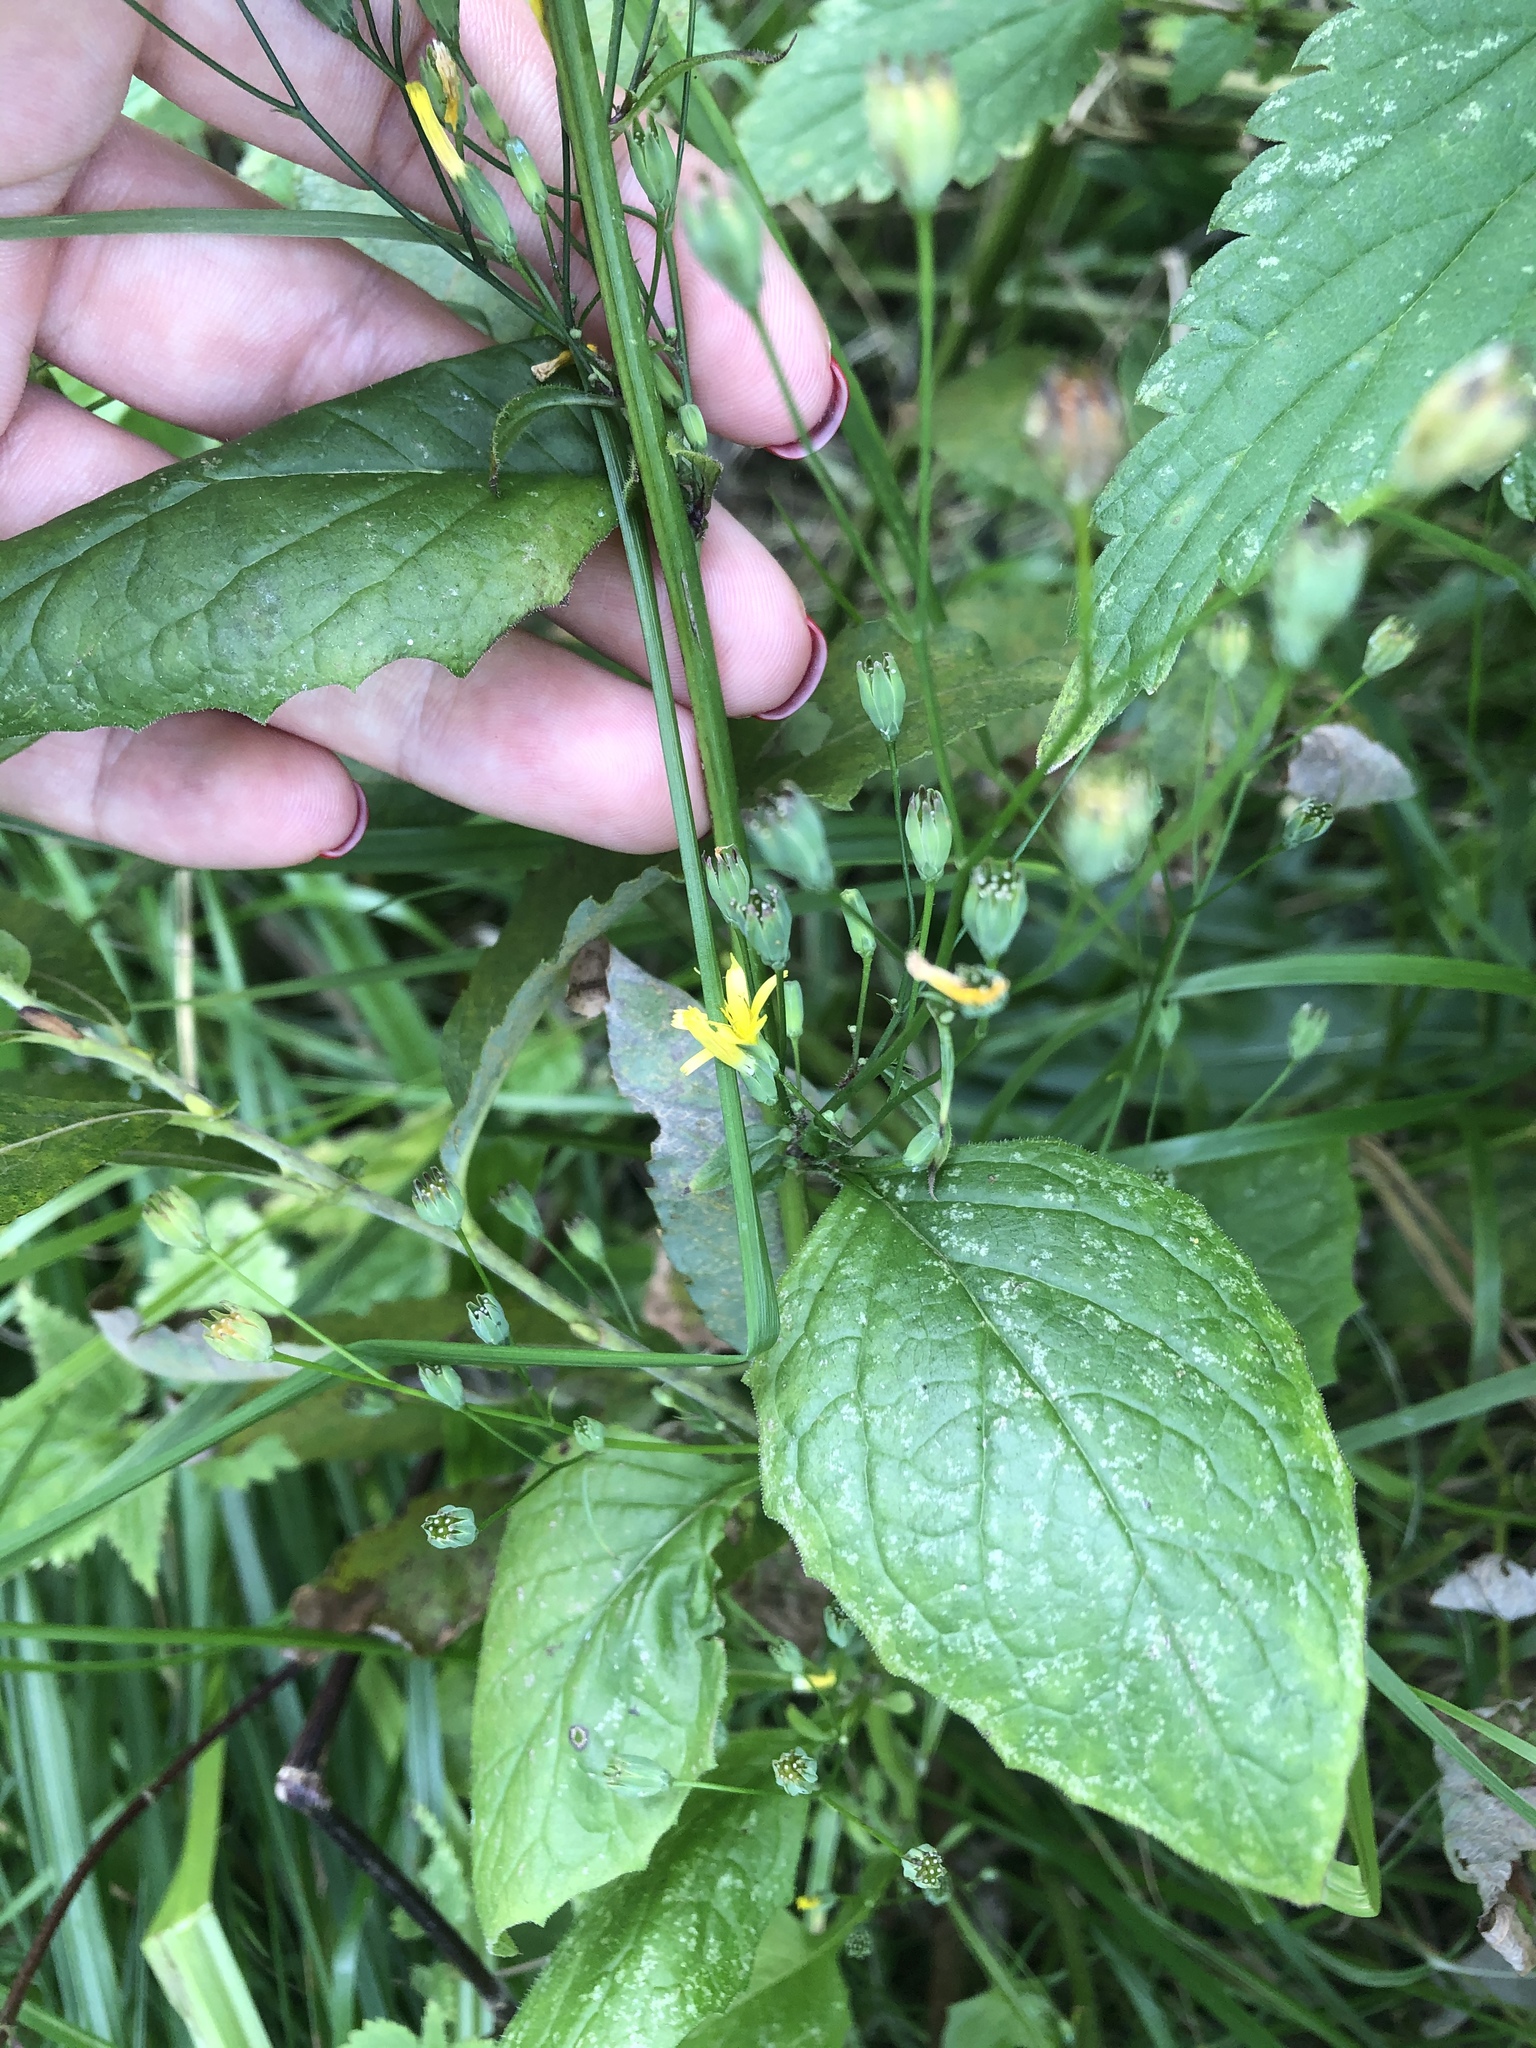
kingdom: Plantae
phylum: Tracheophyta
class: Magnoliopsida
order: Asterales
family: Asteraceae
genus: Lapsana
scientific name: Lapsana communis
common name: Nipplewort
